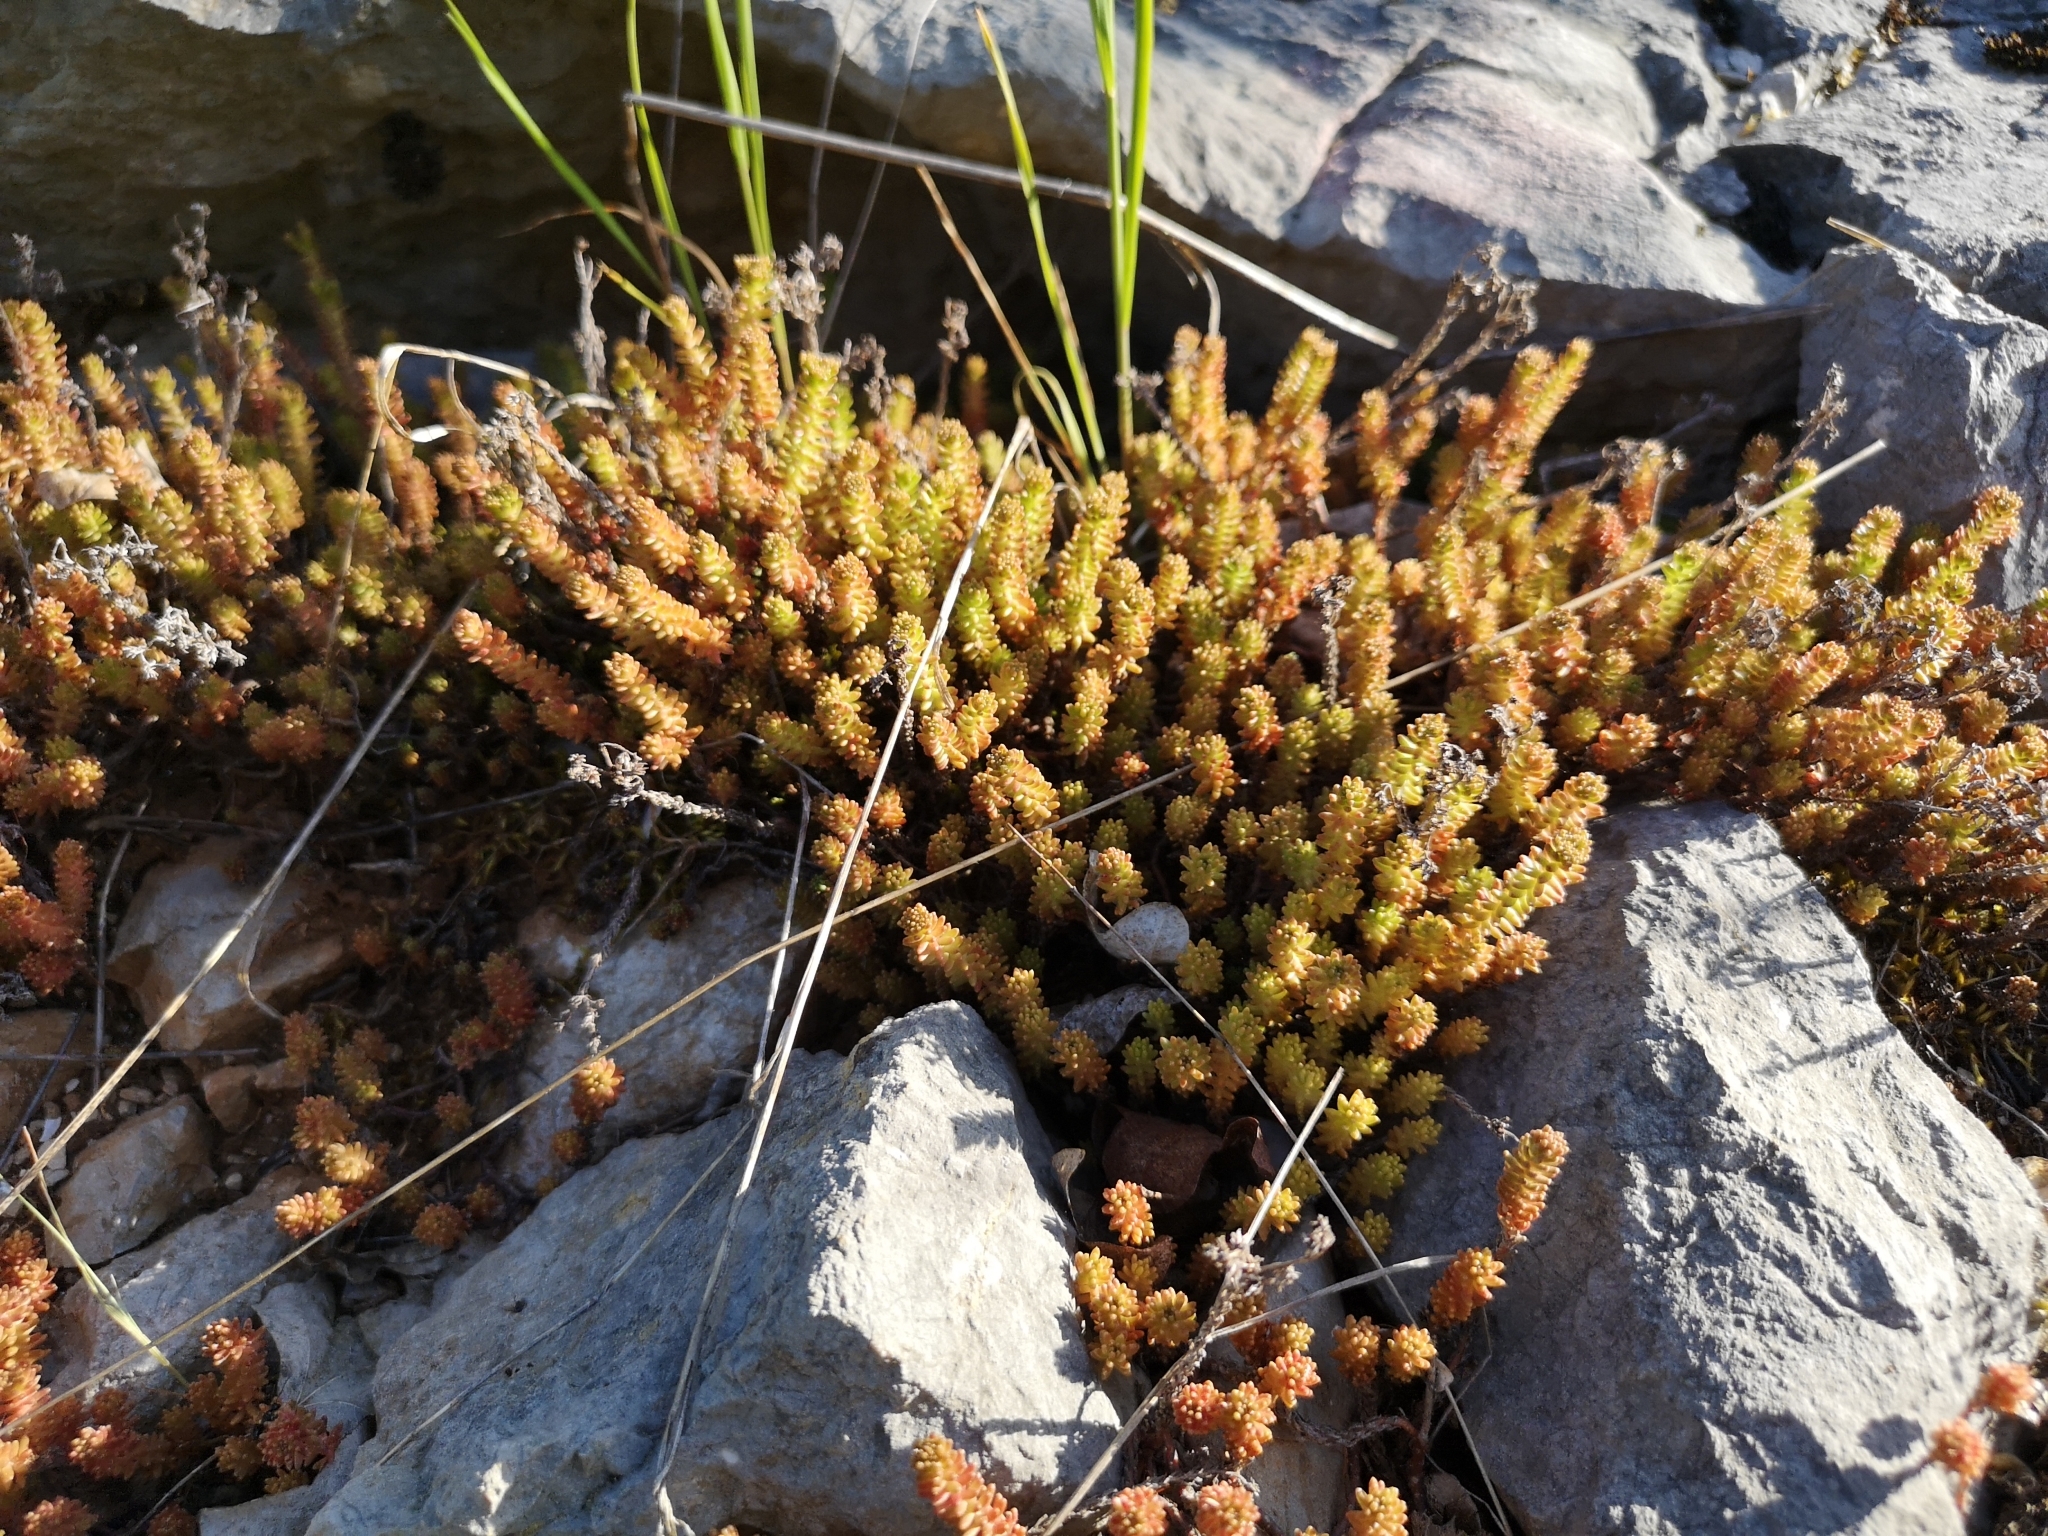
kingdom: Plantae
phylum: Tracheophyta
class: Magnoliopsida
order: Saxifragales
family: Crassulaceae
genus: Sedum
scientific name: Sedum sexangulare
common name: Tasteless stonecrop
